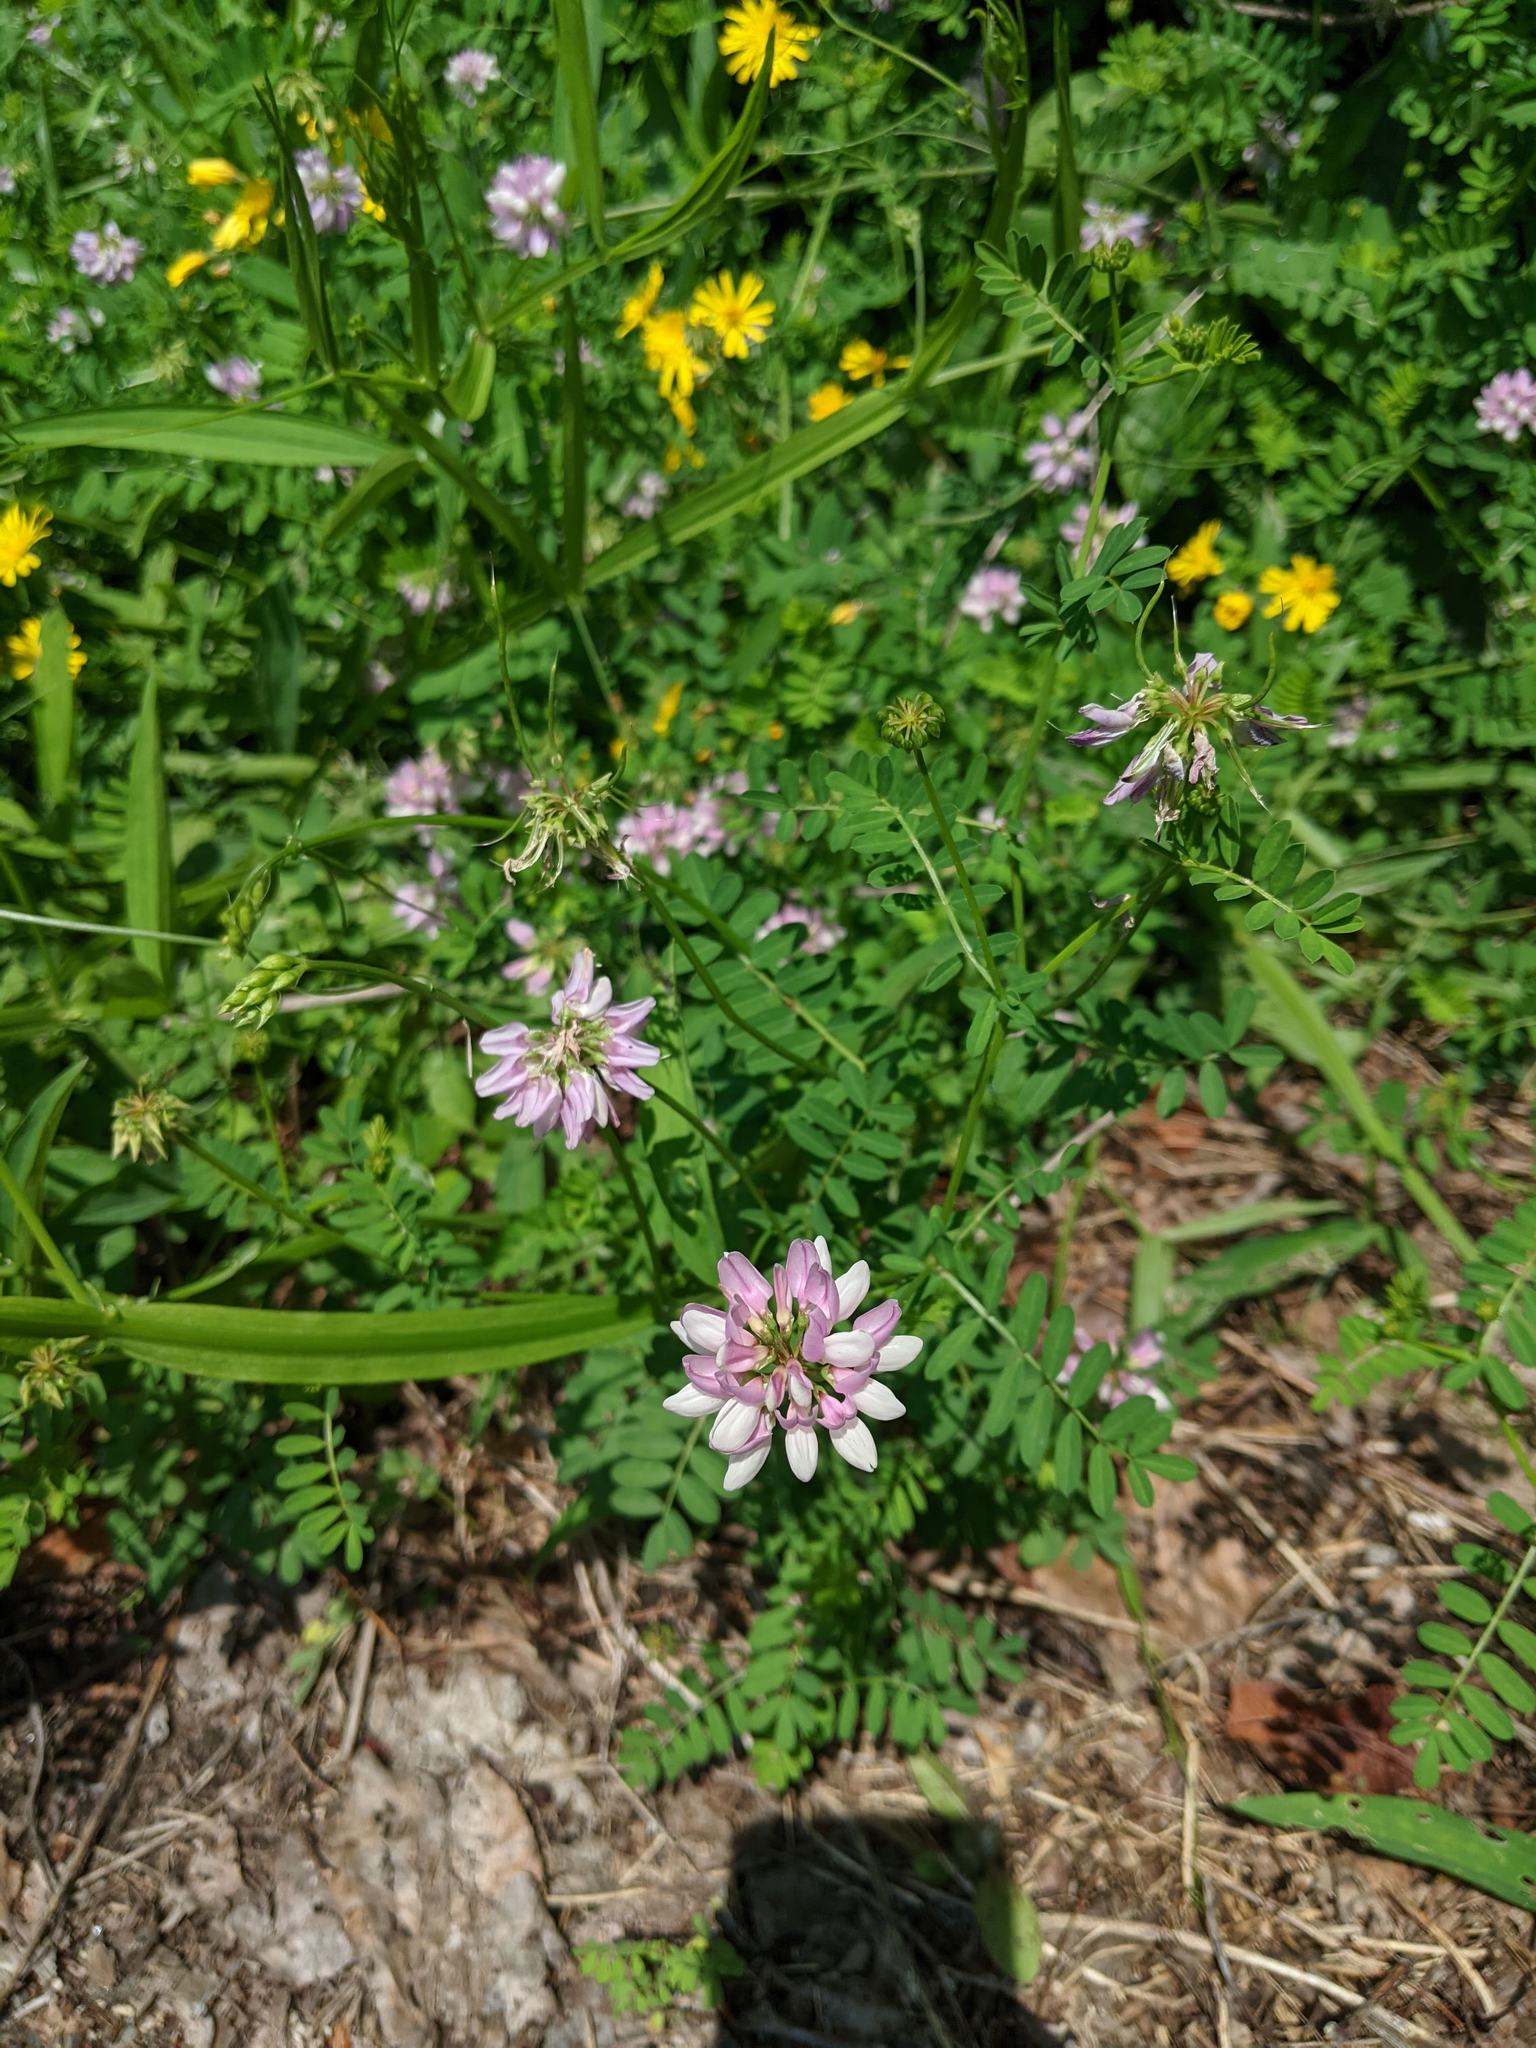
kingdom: Plantae
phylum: Tracheophyta
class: Magnoliopsida
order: Fabales
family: Fabaceae
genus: Coronilla
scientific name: Coronilla varia
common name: Crownvetch
